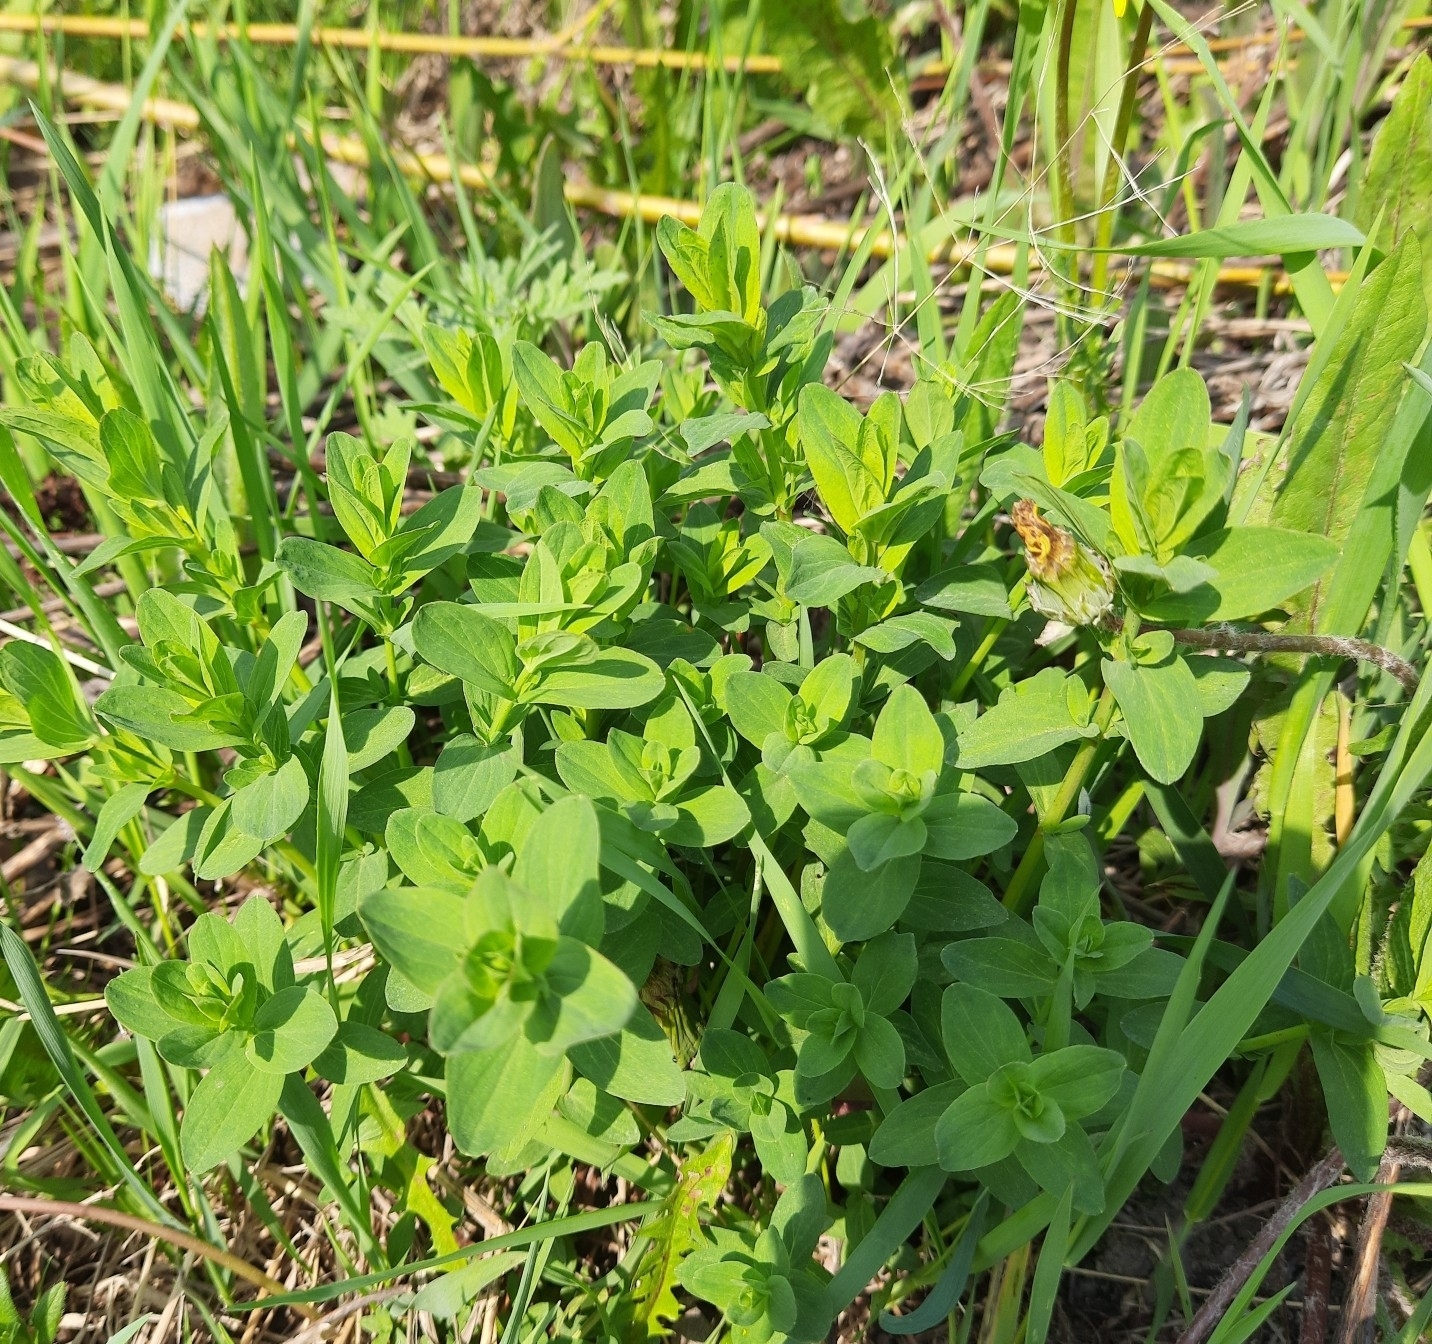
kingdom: Plantae
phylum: Tracheophyta
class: Magnoliopsida
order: Malpighiales
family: Hypericaceae
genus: Hypericum
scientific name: Hypericum perforatum
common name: Common st. johnswort
